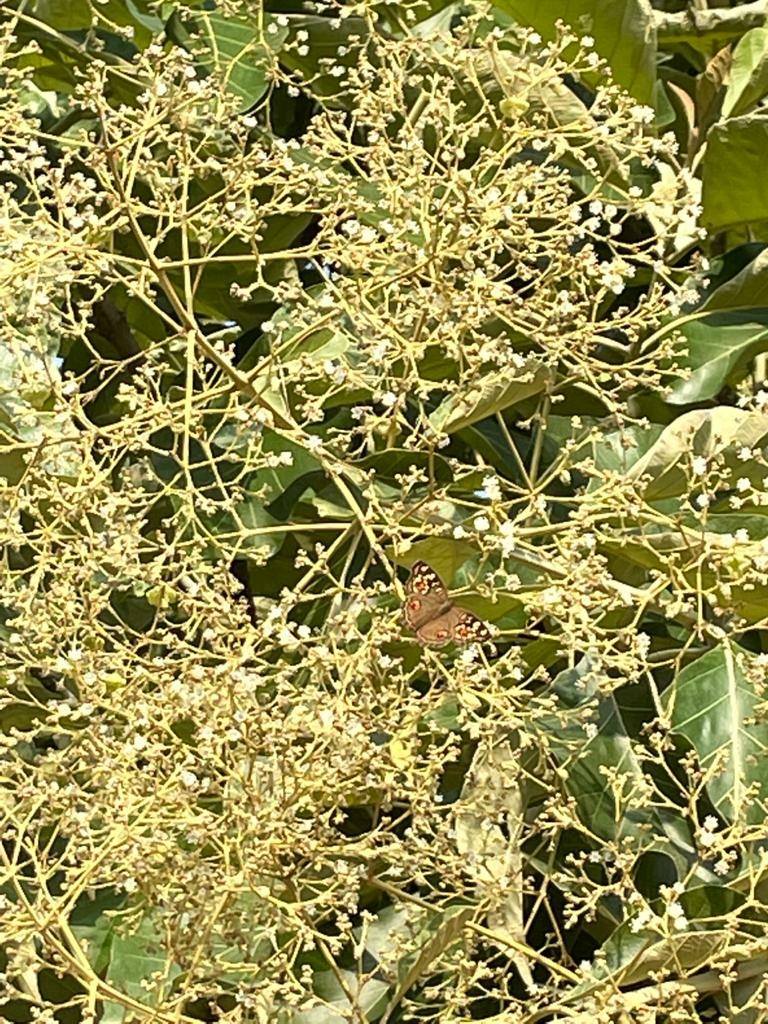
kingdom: Animalia
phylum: Arthropoda
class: Insecta
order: Lepidoptera
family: Nymphalidae
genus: Junonia
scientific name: Junonia lemonias
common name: Lemon pansy
